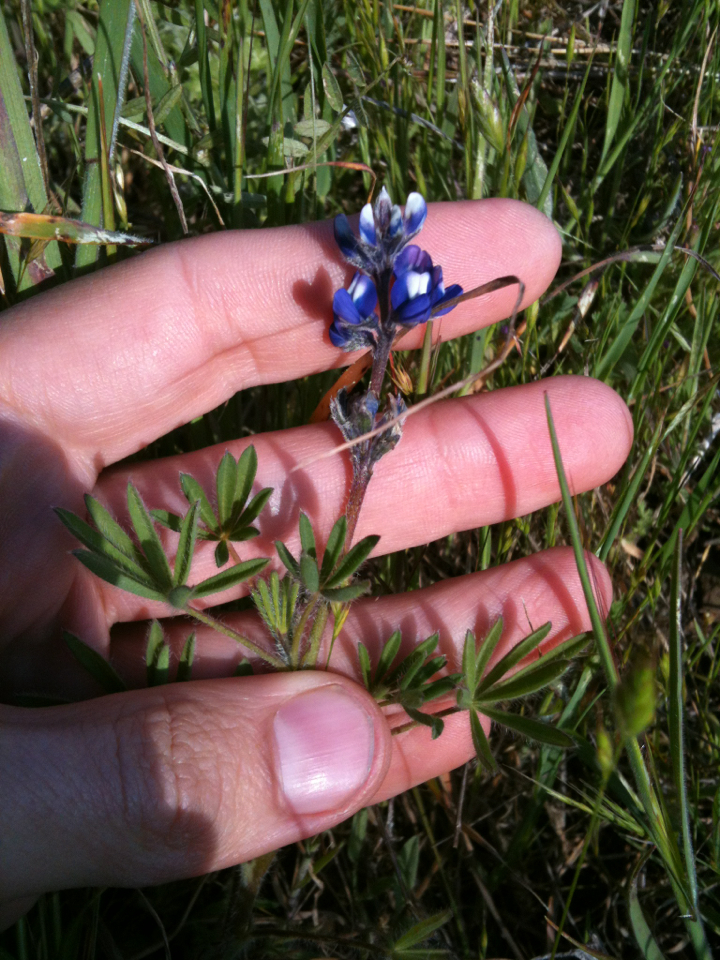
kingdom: Plantae
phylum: Tracheophyta
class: Magnoliopsida
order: Fabales
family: Fabaceae
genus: Lupinus
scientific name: Lupinus bicolor
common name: Miniature lupine
